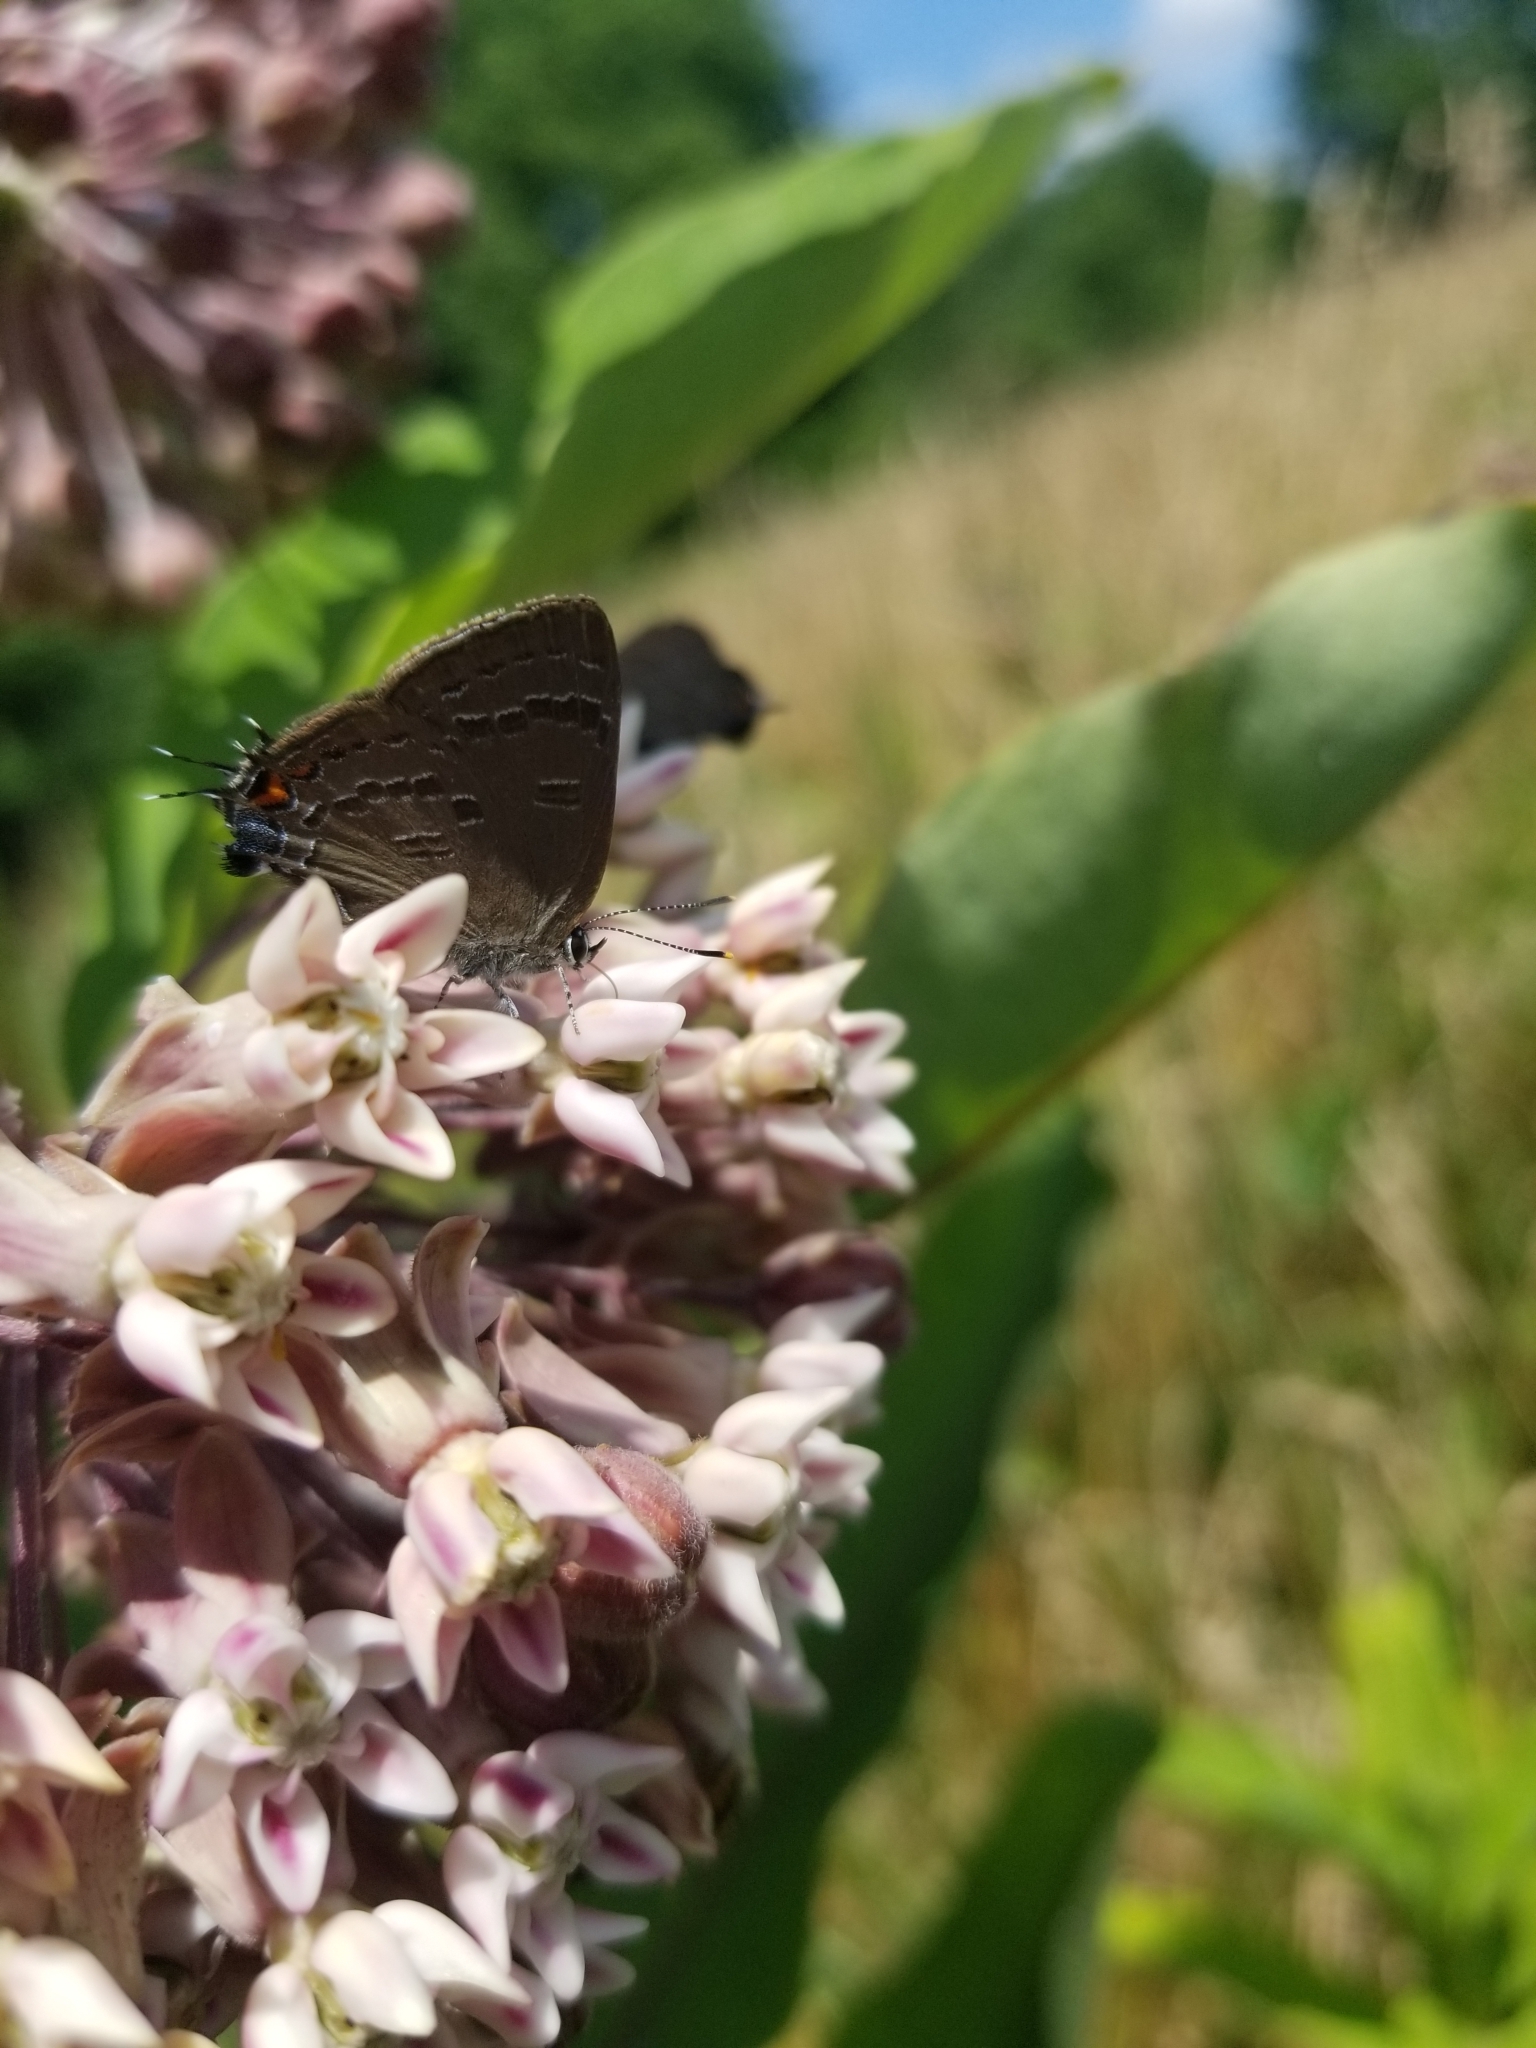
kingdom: Animalia
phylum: Arthropoda
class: Insecta
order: Lepidoptera
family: Lycaenidae
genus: Satyrium
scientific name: Satyrium calanus
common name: Banded hairstreak
